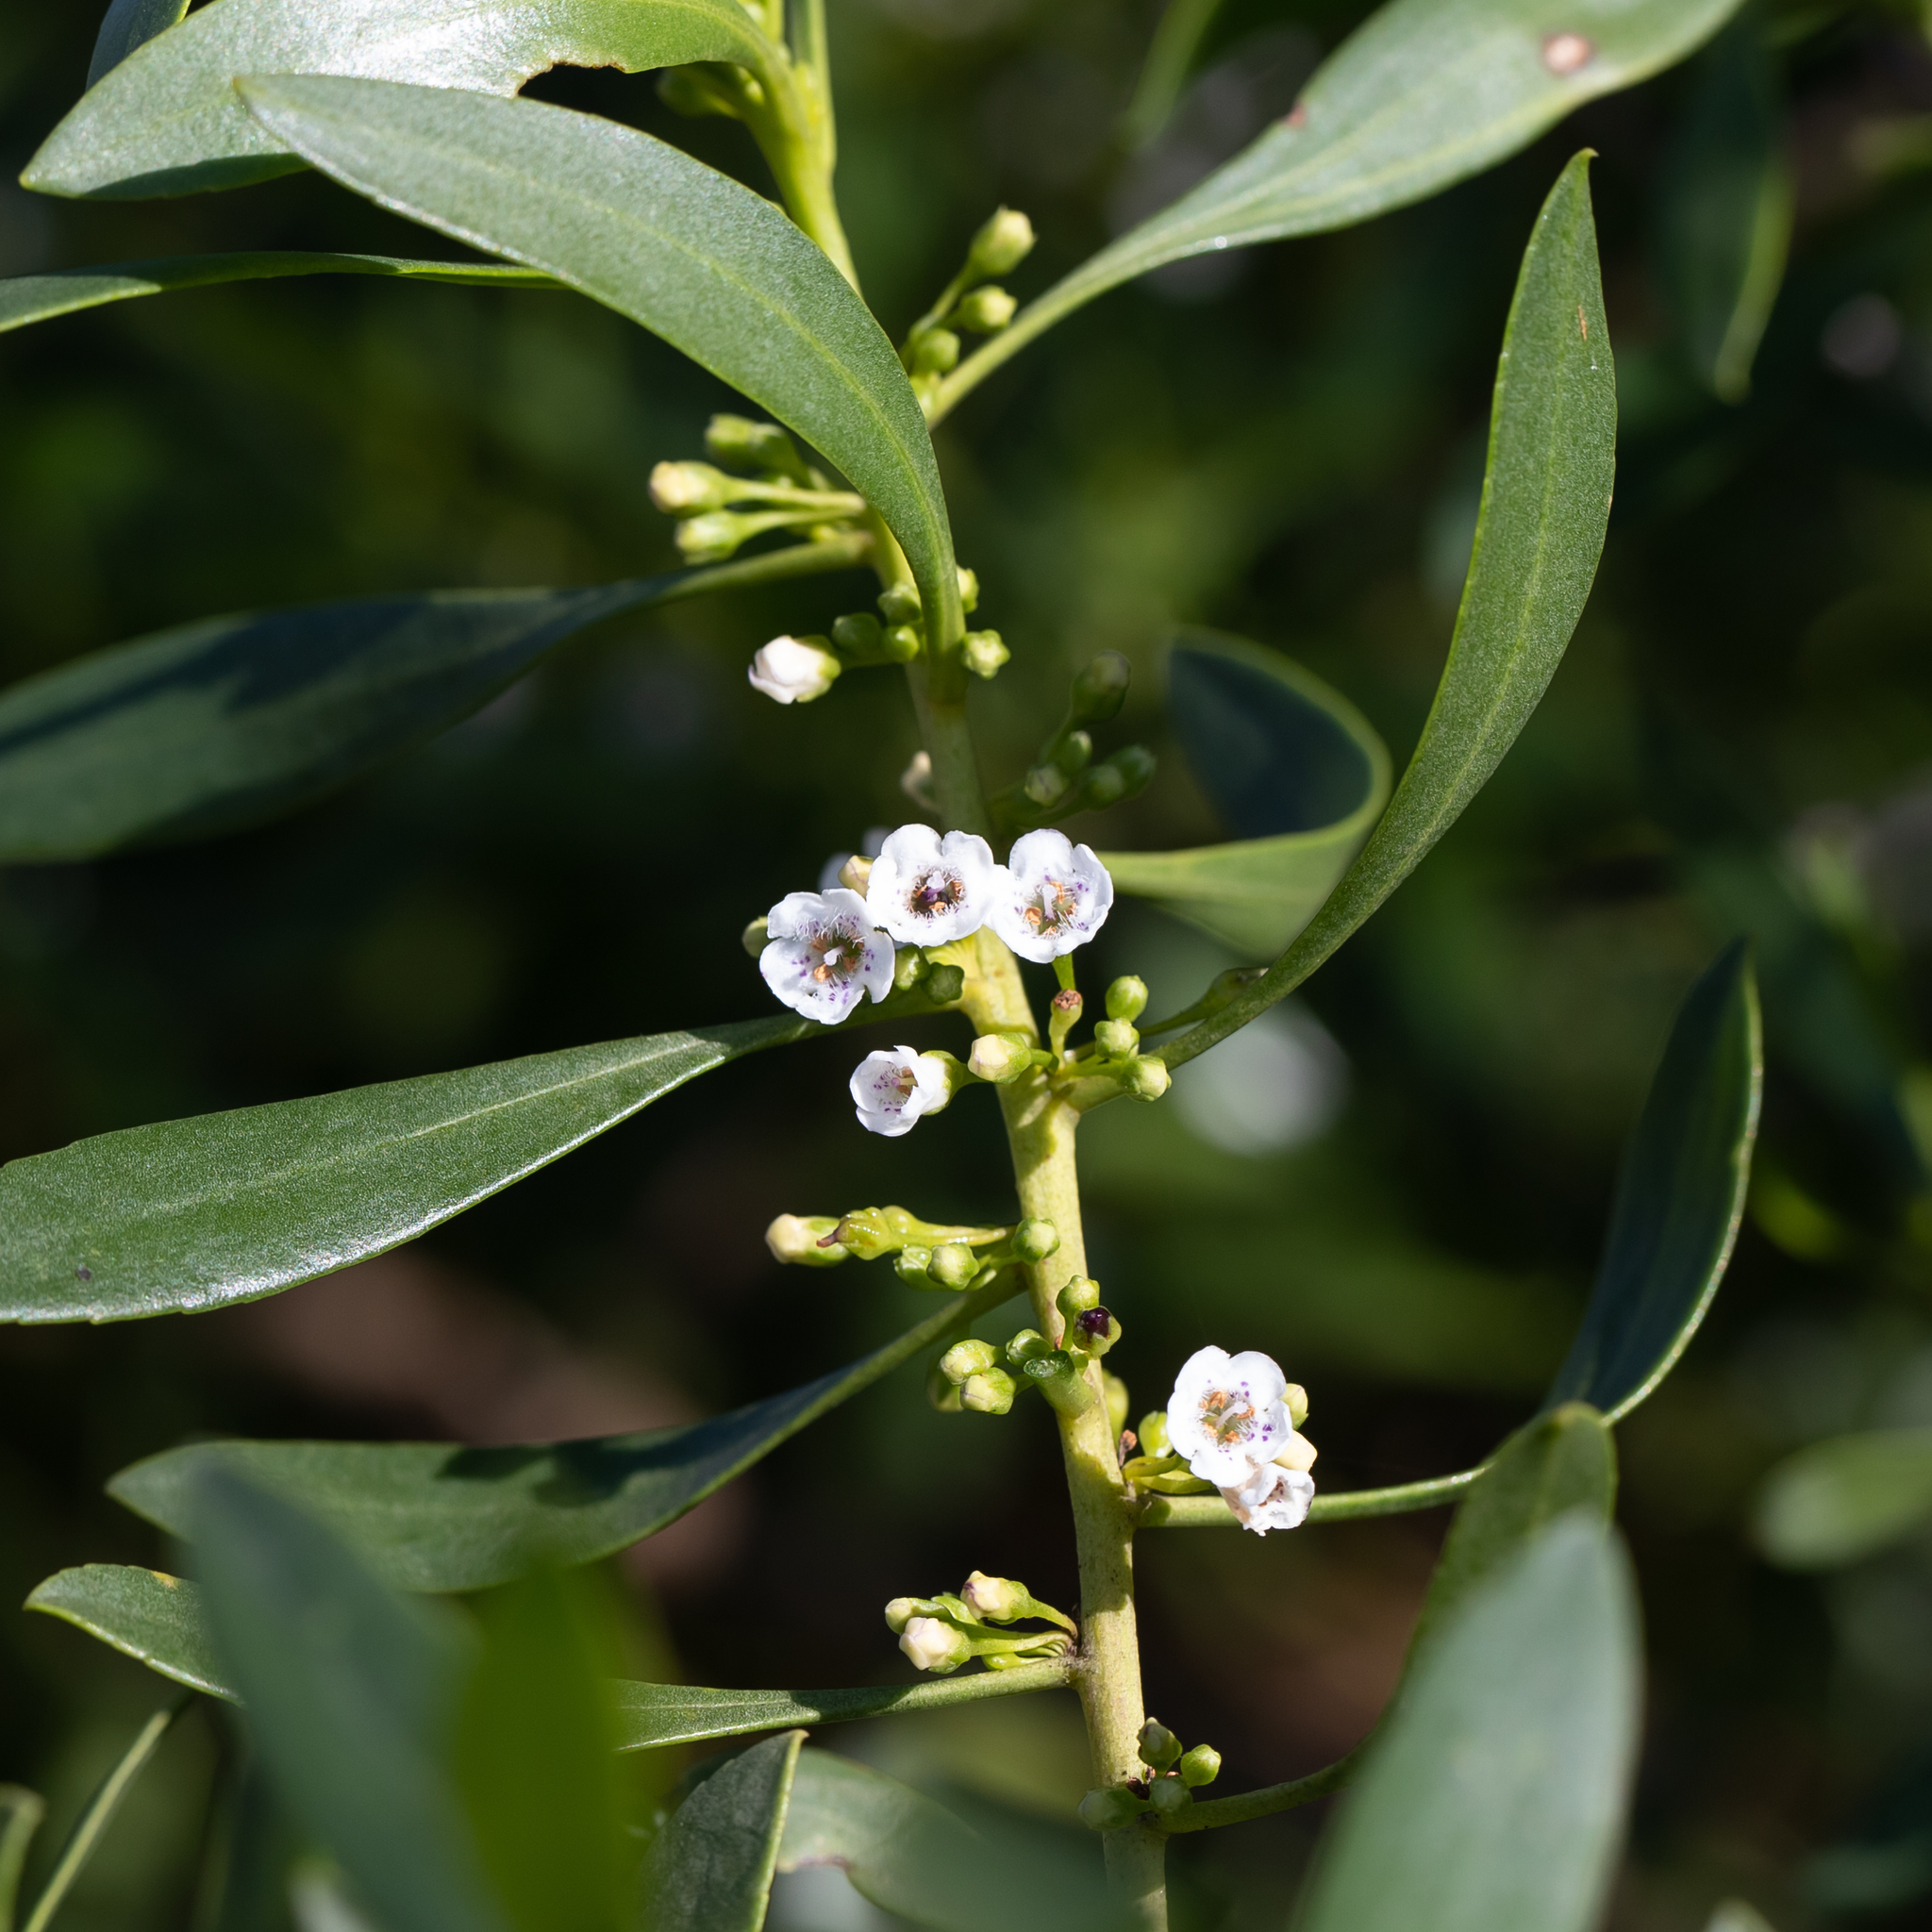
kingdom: Plantae
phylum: Tracheophyta
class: Magnoliopsida
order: Lamiales
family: Scrophulariaceae
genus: Myoporum
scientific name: Myoporum insulare
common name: Common boobialla
